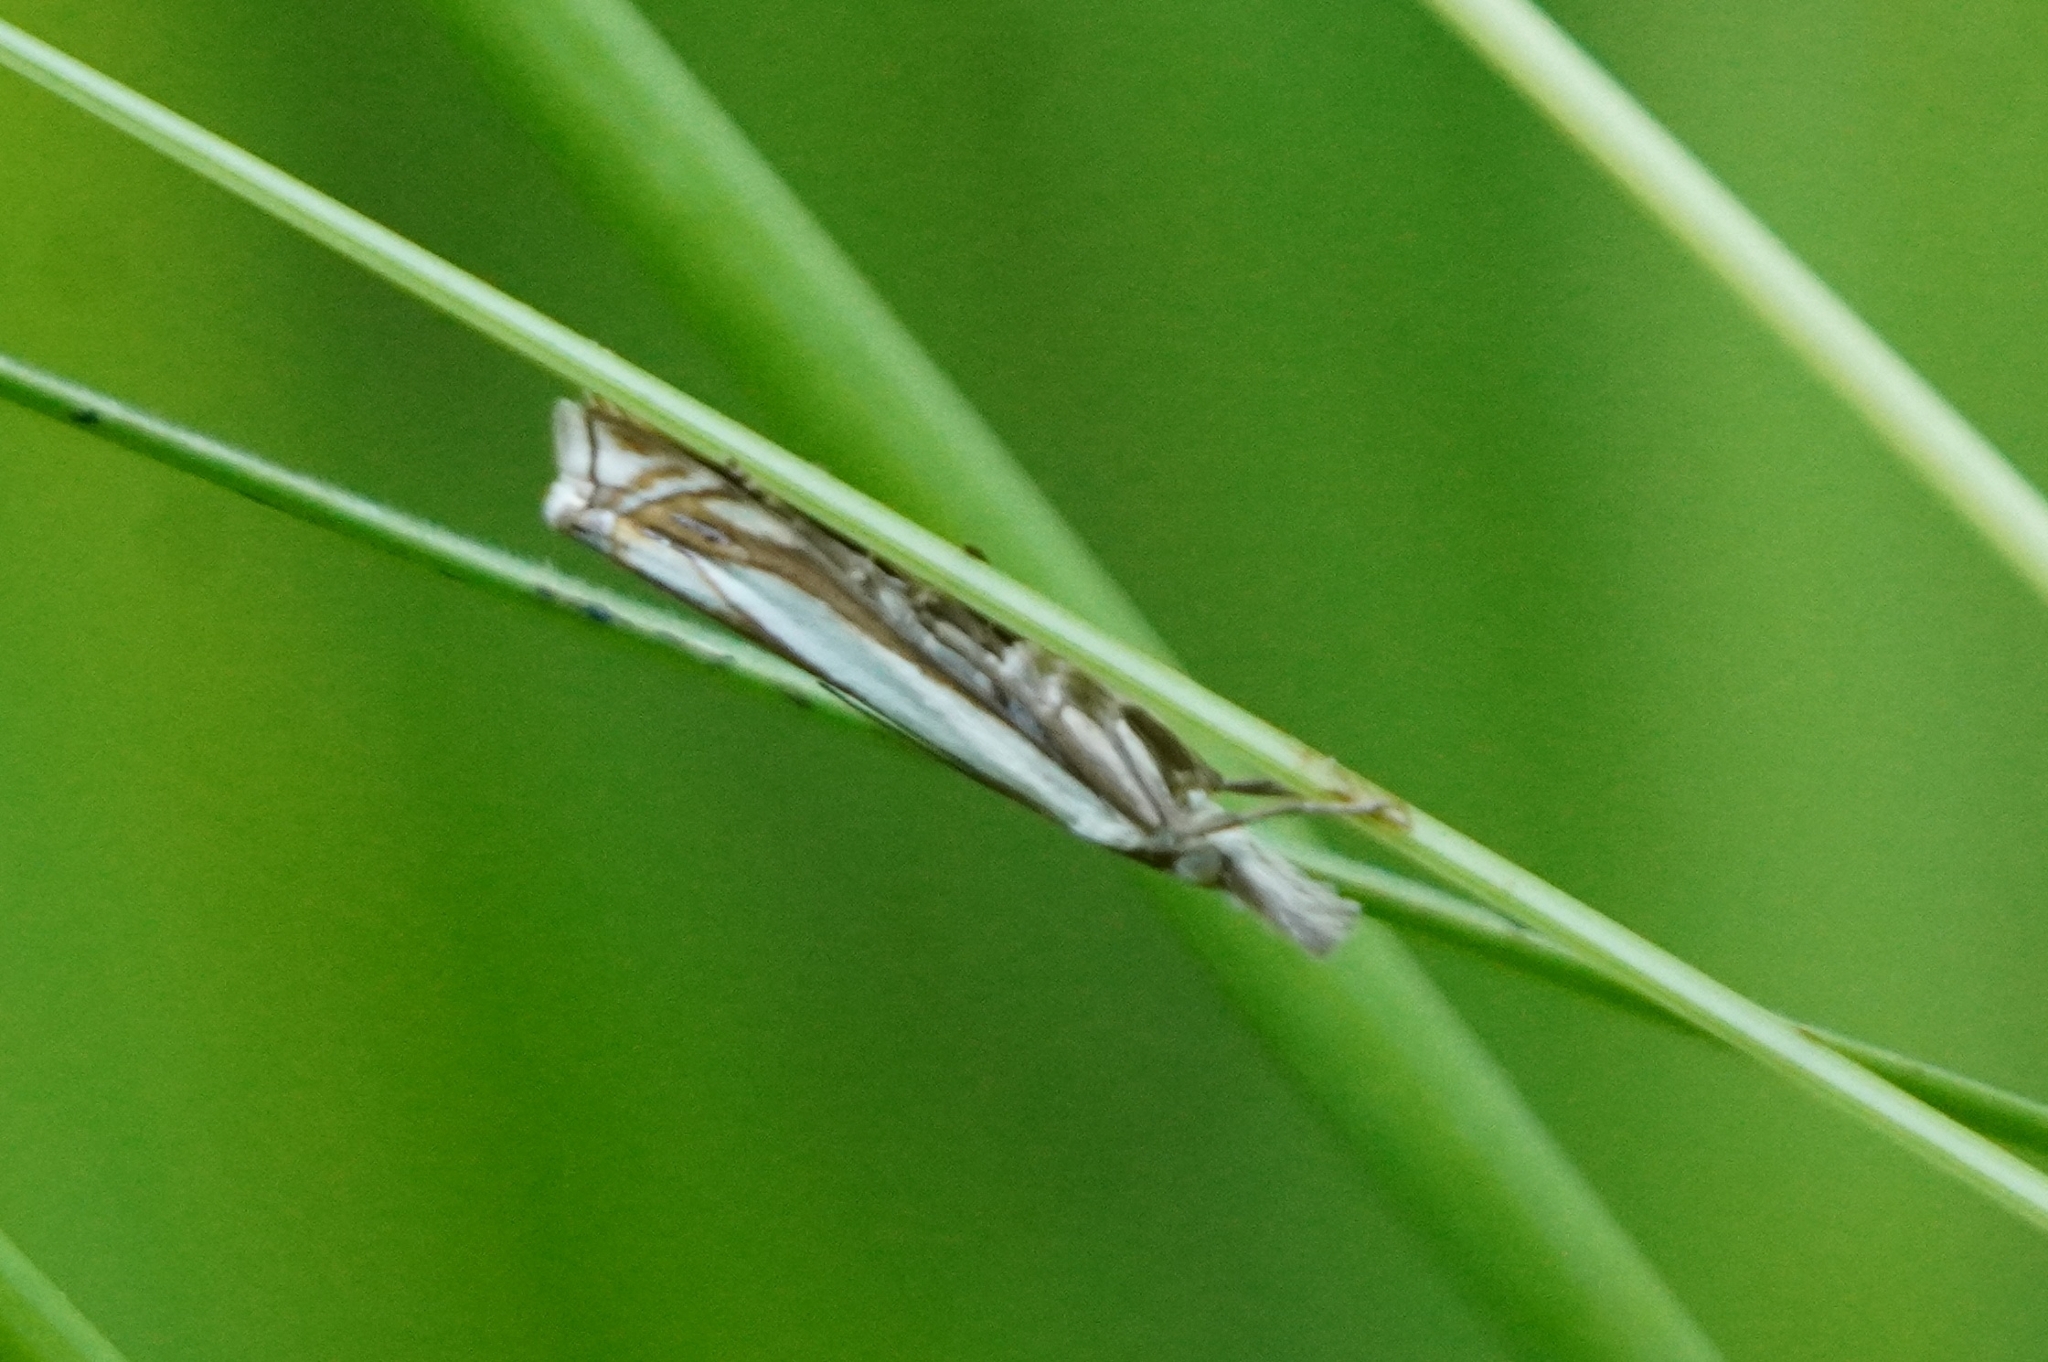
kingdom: Animalia
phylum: Arthropoda
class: Insecta
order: Lepidoptera
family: Crambidae
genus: Crambus
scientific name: Crambus pascuella
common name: Inlaid grass-veneer
